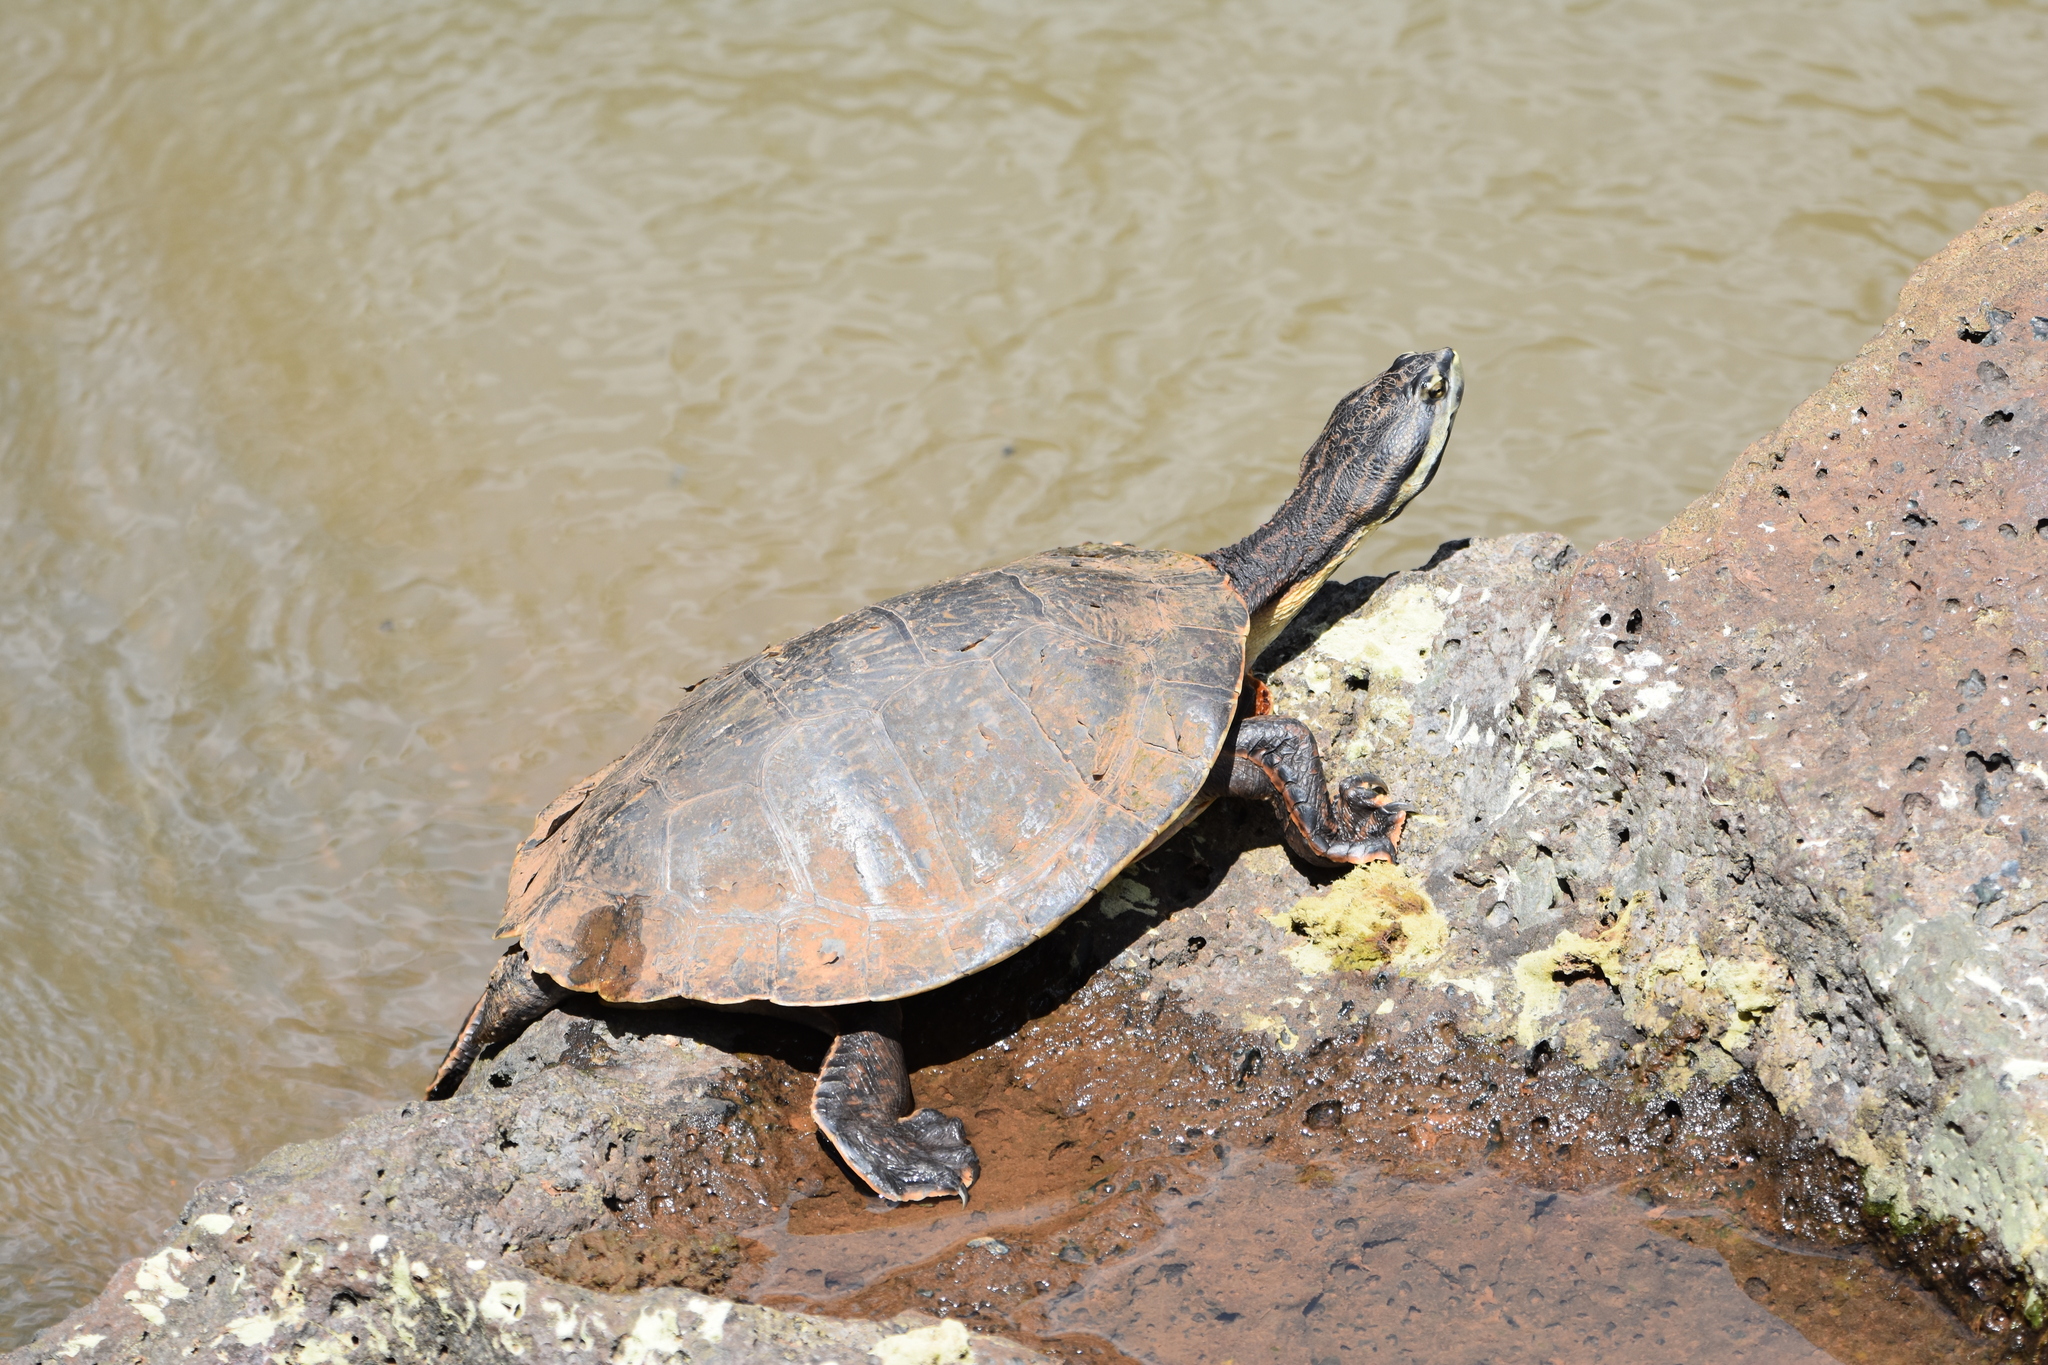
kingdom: Animalia
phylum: Chordata
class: Testudines
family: Chelidae
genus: Phrynops
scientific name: Phrynops williamsi
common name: Williams side-necked turtle
